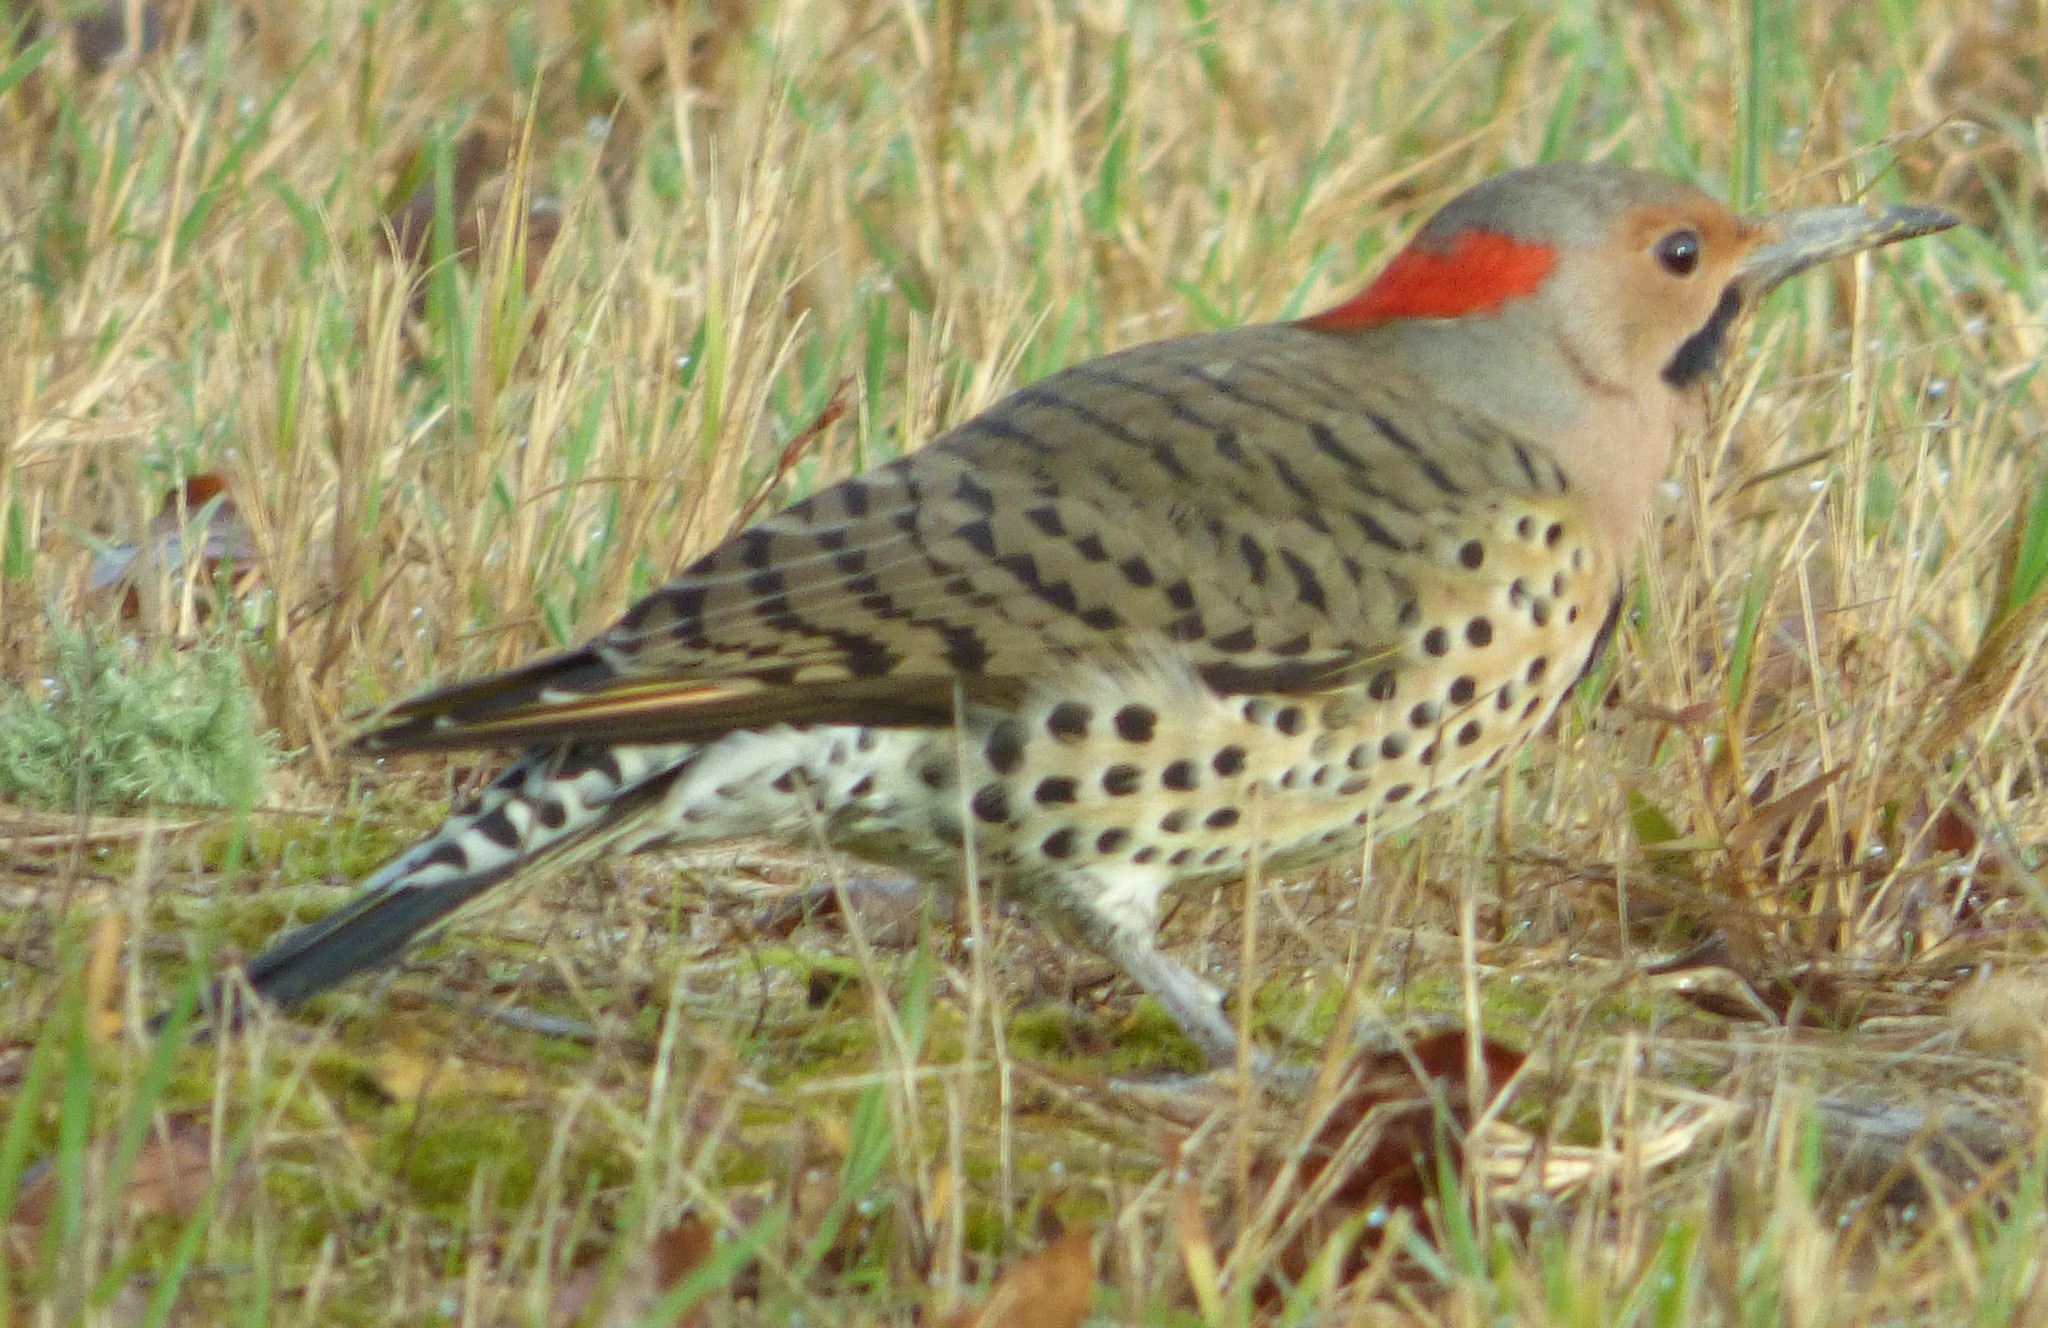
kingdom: Animalia
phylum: Chordata
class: Aves
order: Piciformes
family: Picidae
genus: Colaptes
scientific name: Colaptes auratus
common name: Northern flicker
